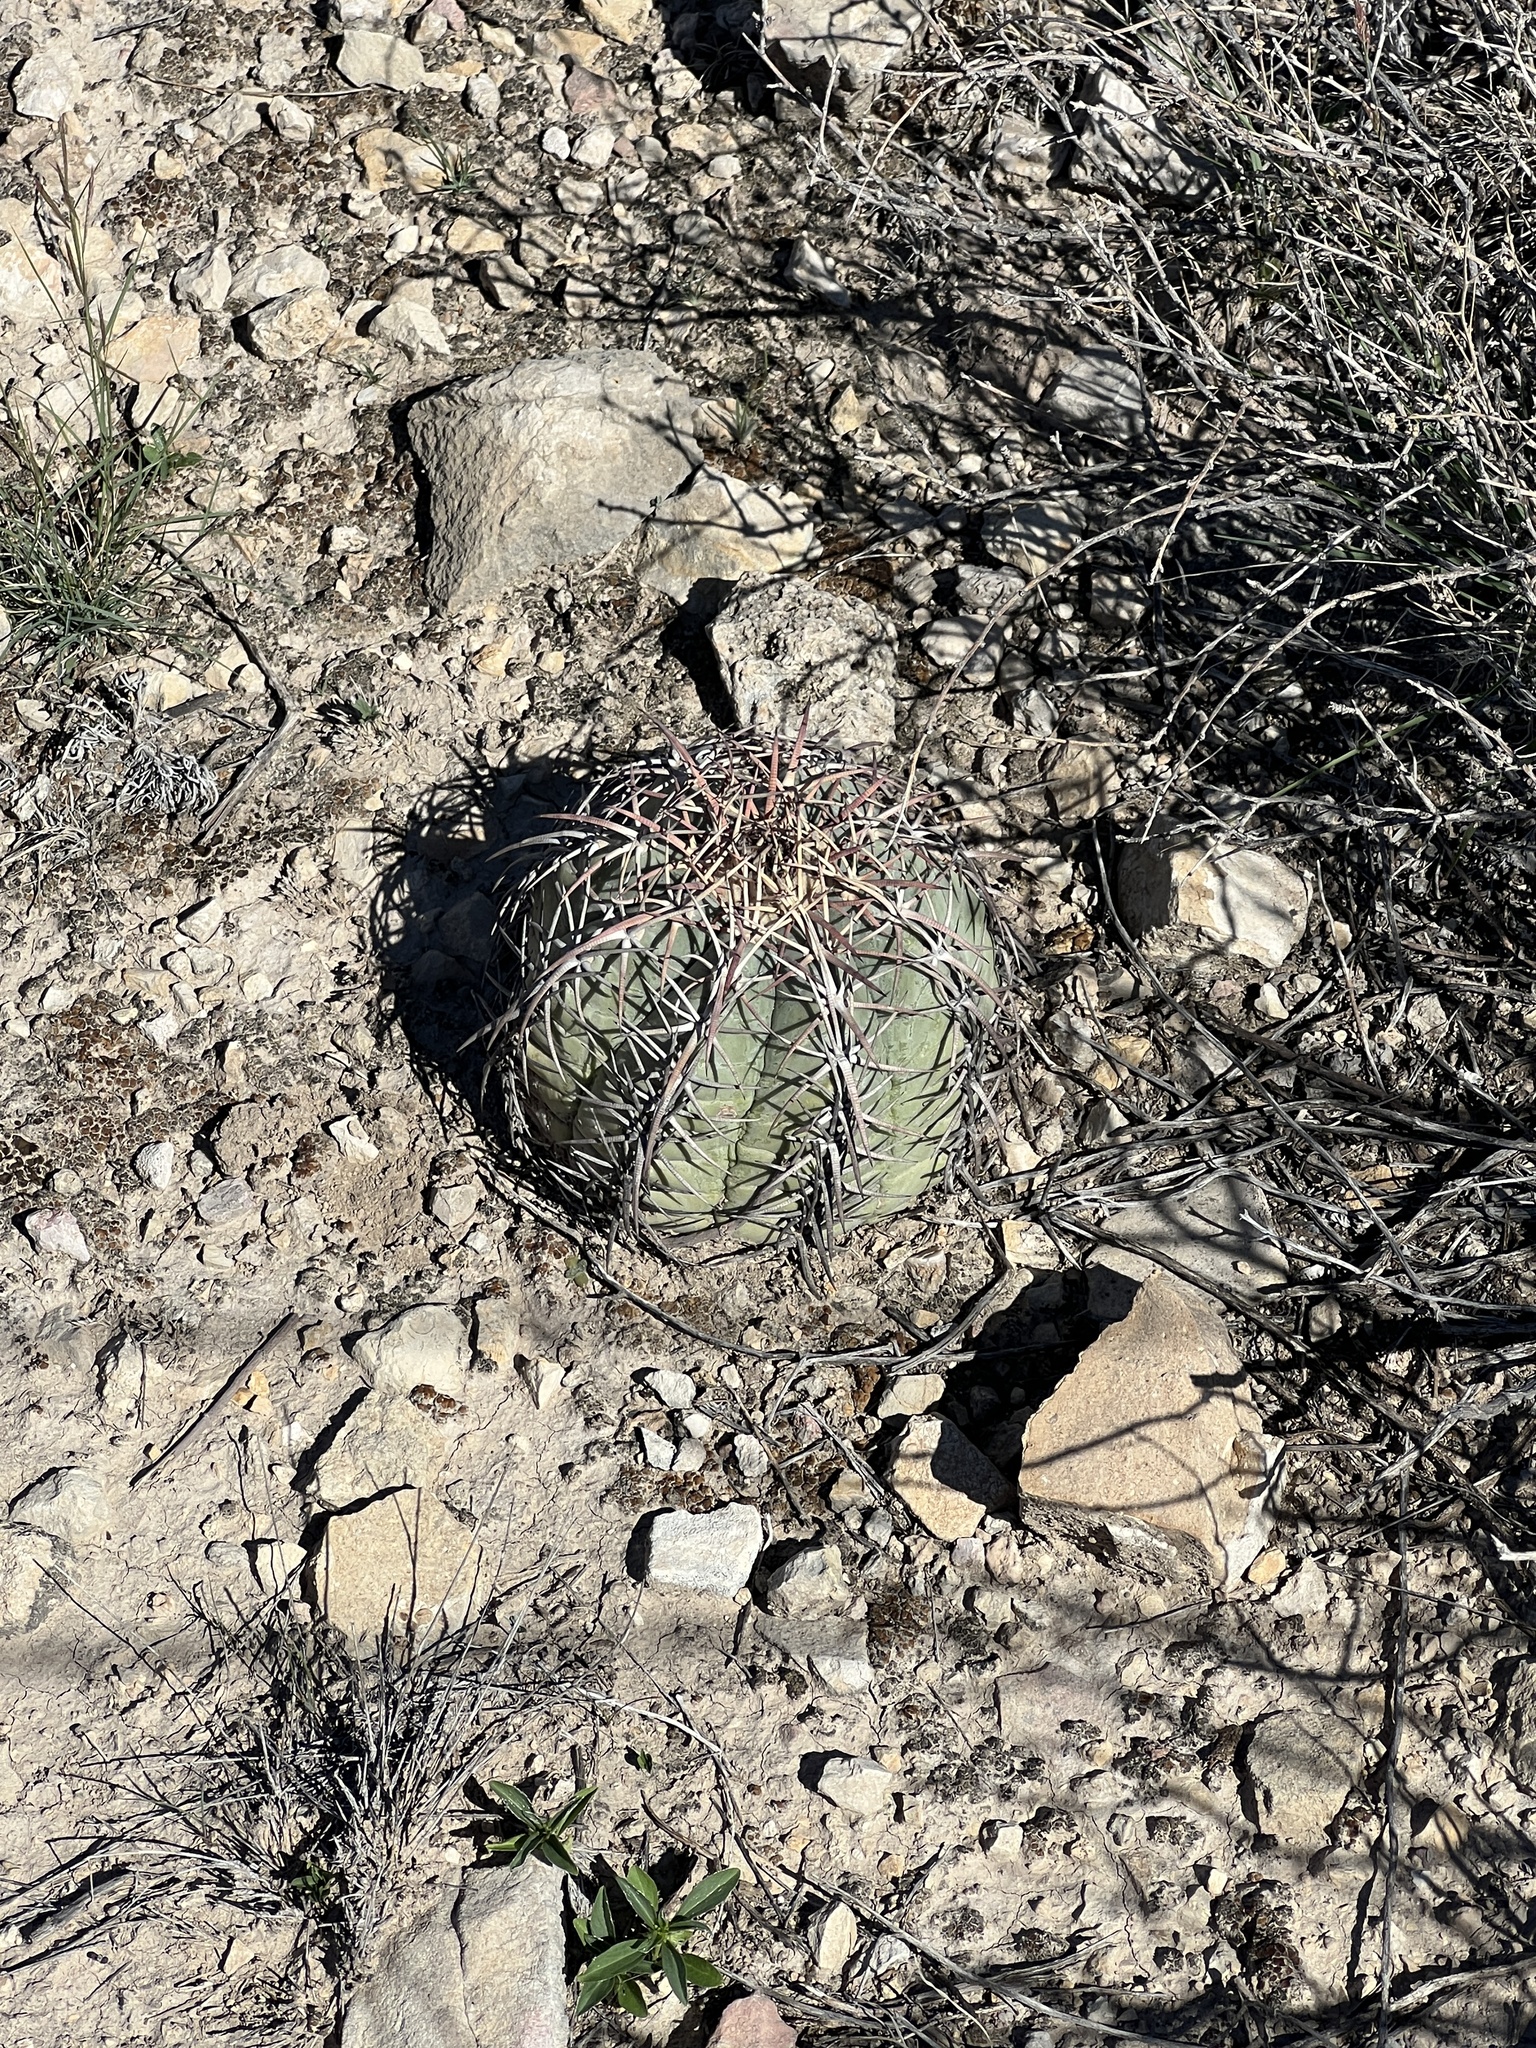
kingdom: Plantae
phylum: Tracheophyta
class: Magnoliopsida
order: Caryophyllales
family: Cactaceae
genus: Echinocactus
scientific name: Echinocactus horizonthalonius
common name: Devilshead
